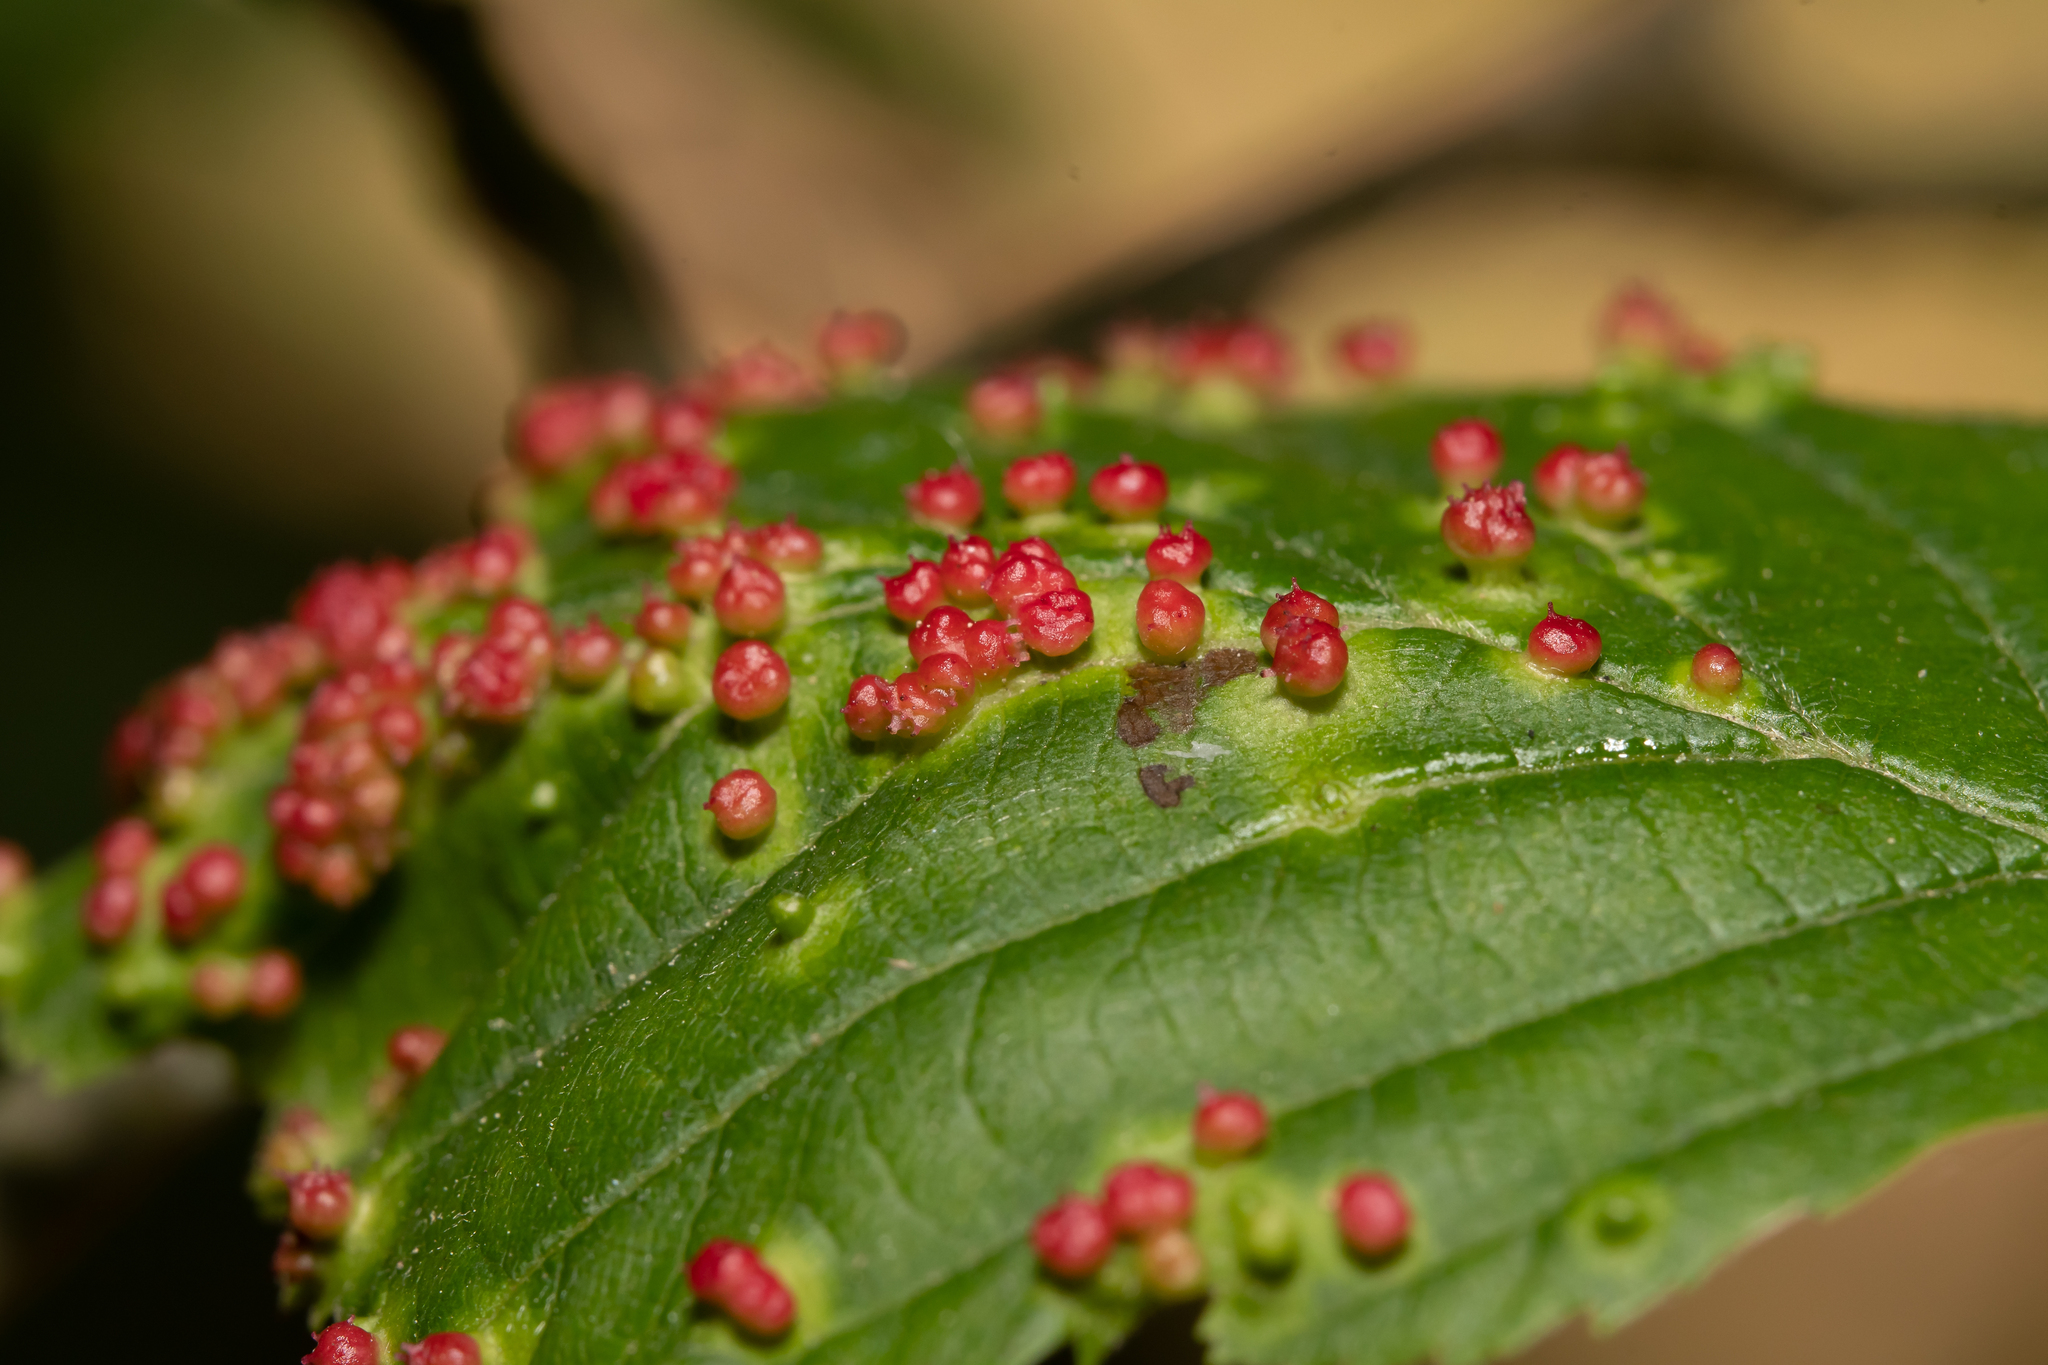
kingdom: Animalia
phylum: Arthropoda
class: Arachnida
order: Trombidiformes
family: Eriophyidae
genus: Eriophyes
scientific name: Eriophyes laevis
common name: Alder leaf gall mite
